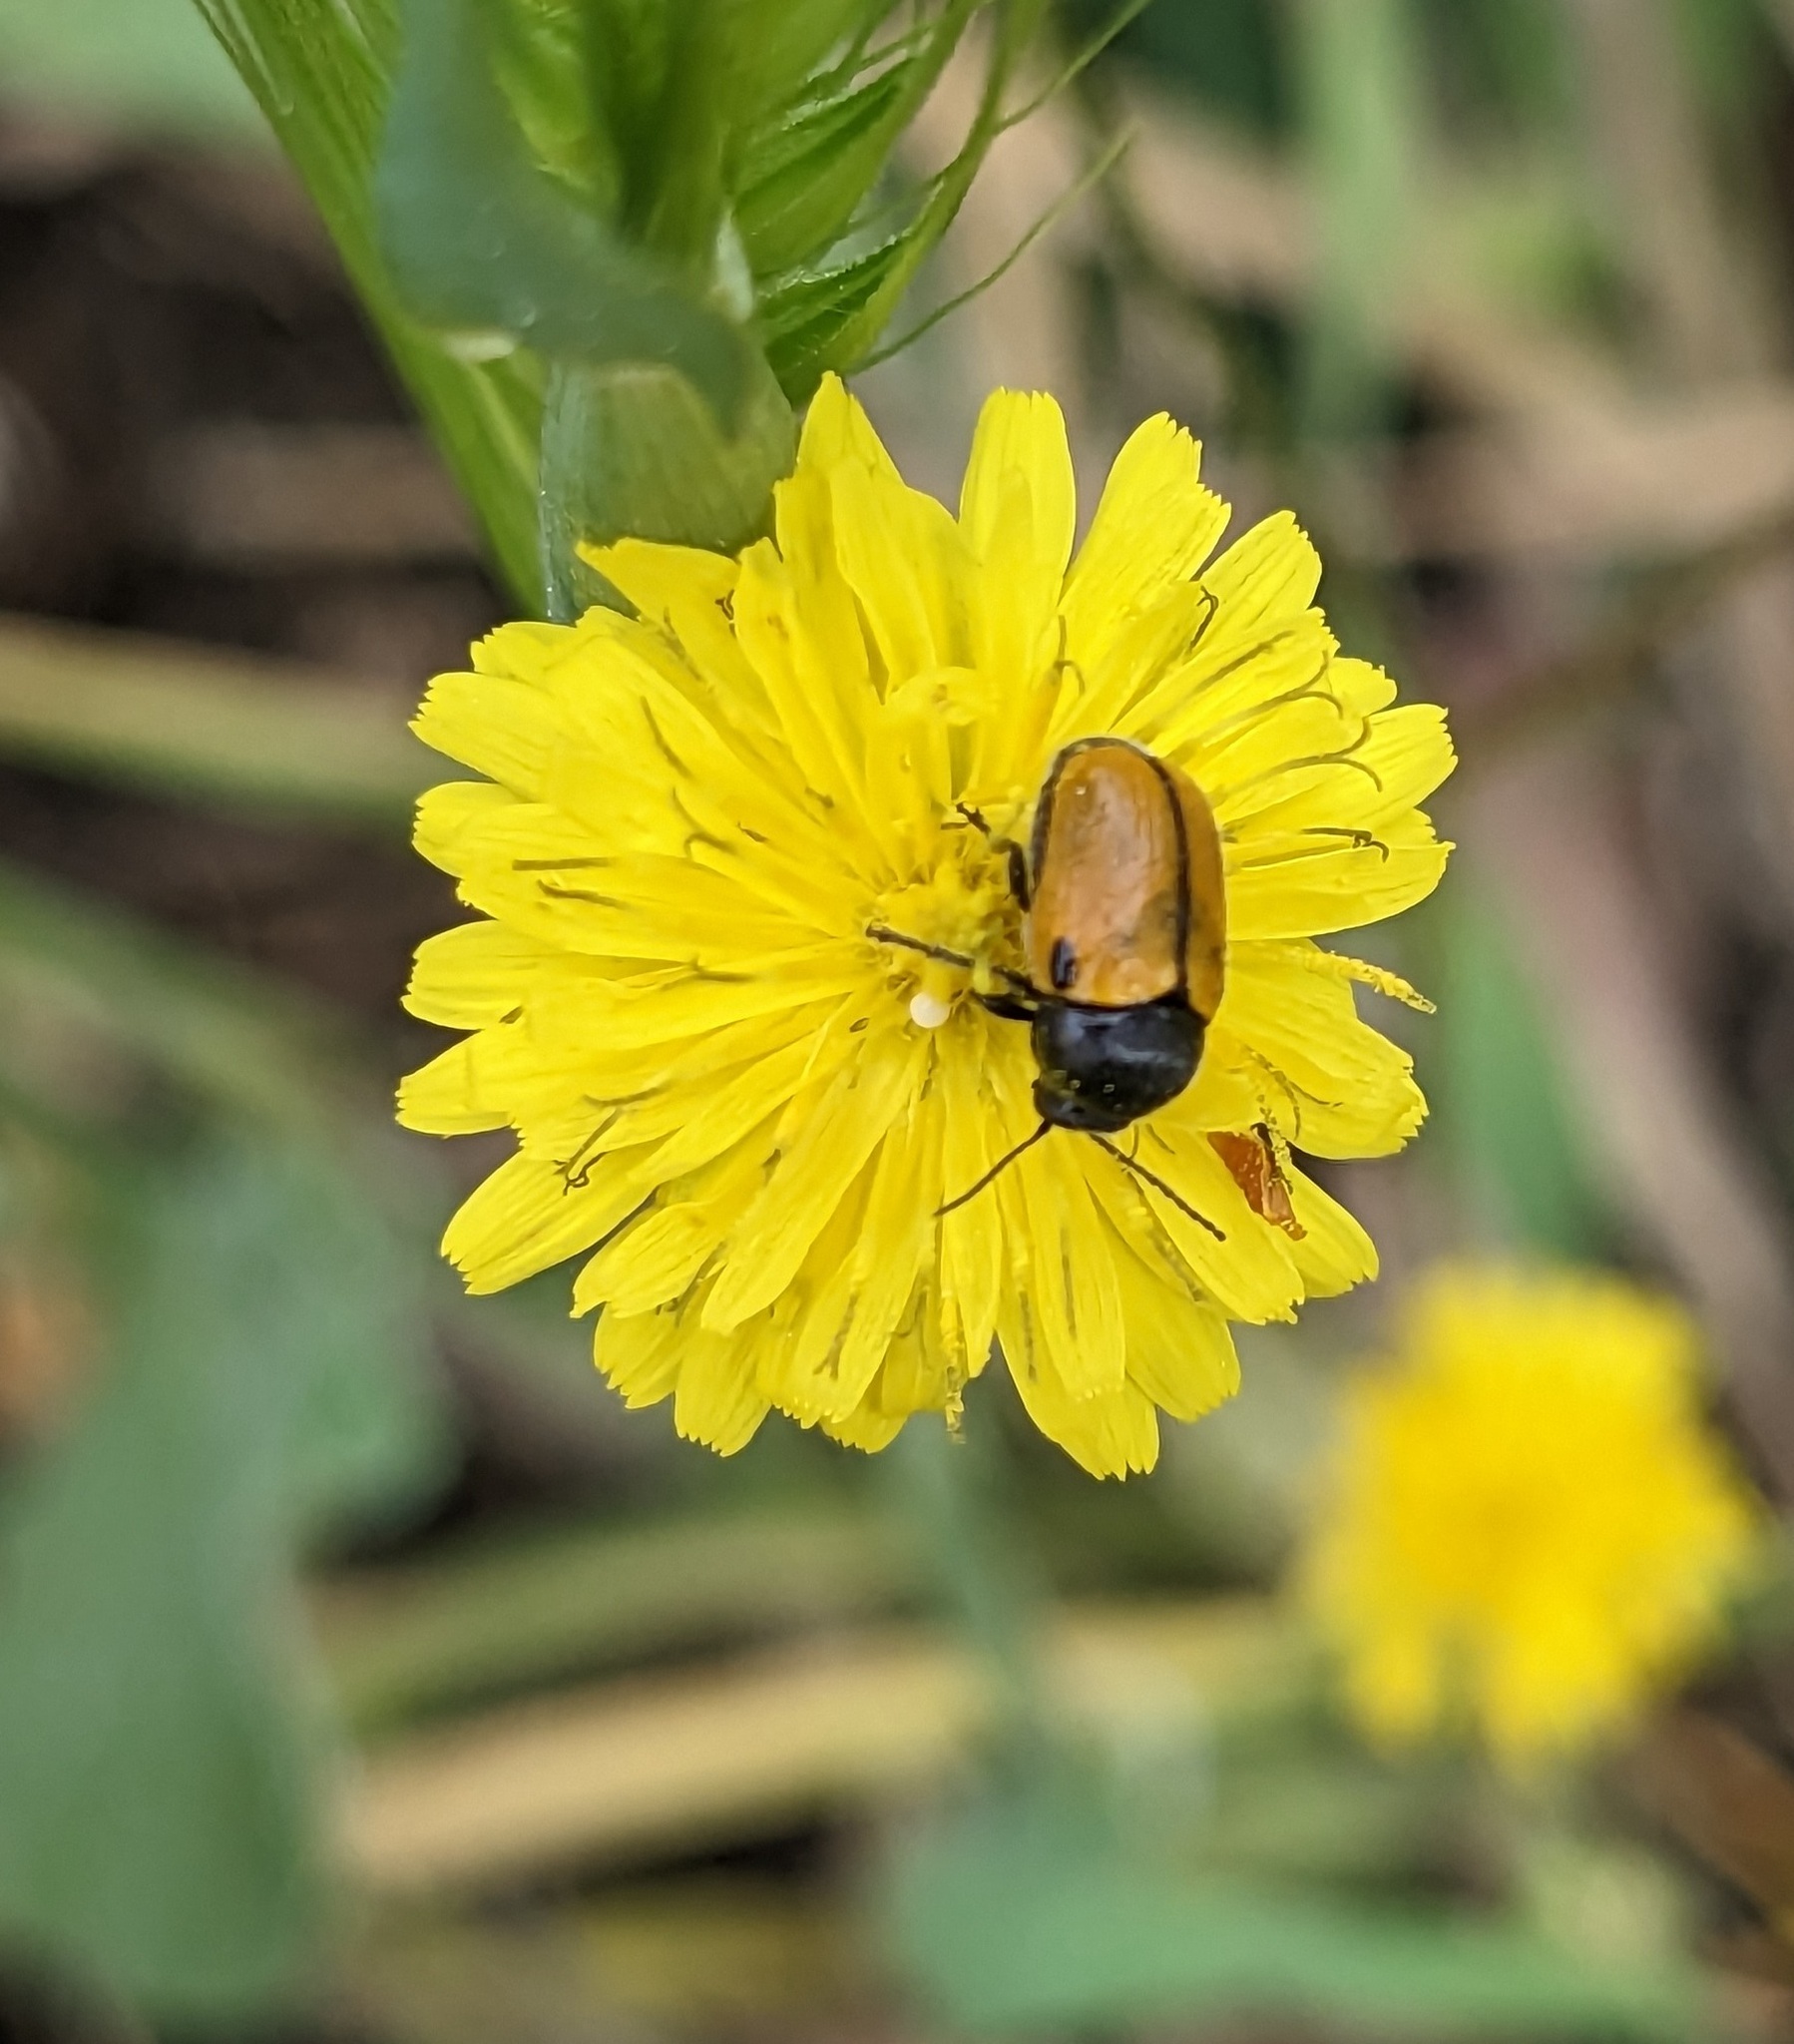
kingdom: Animalia
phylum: Arthropoda
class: Insecta
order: Coleoptera
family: Chrysomelidae
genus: Cryptocephalus
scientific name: Cryptocephalus rugicollis
